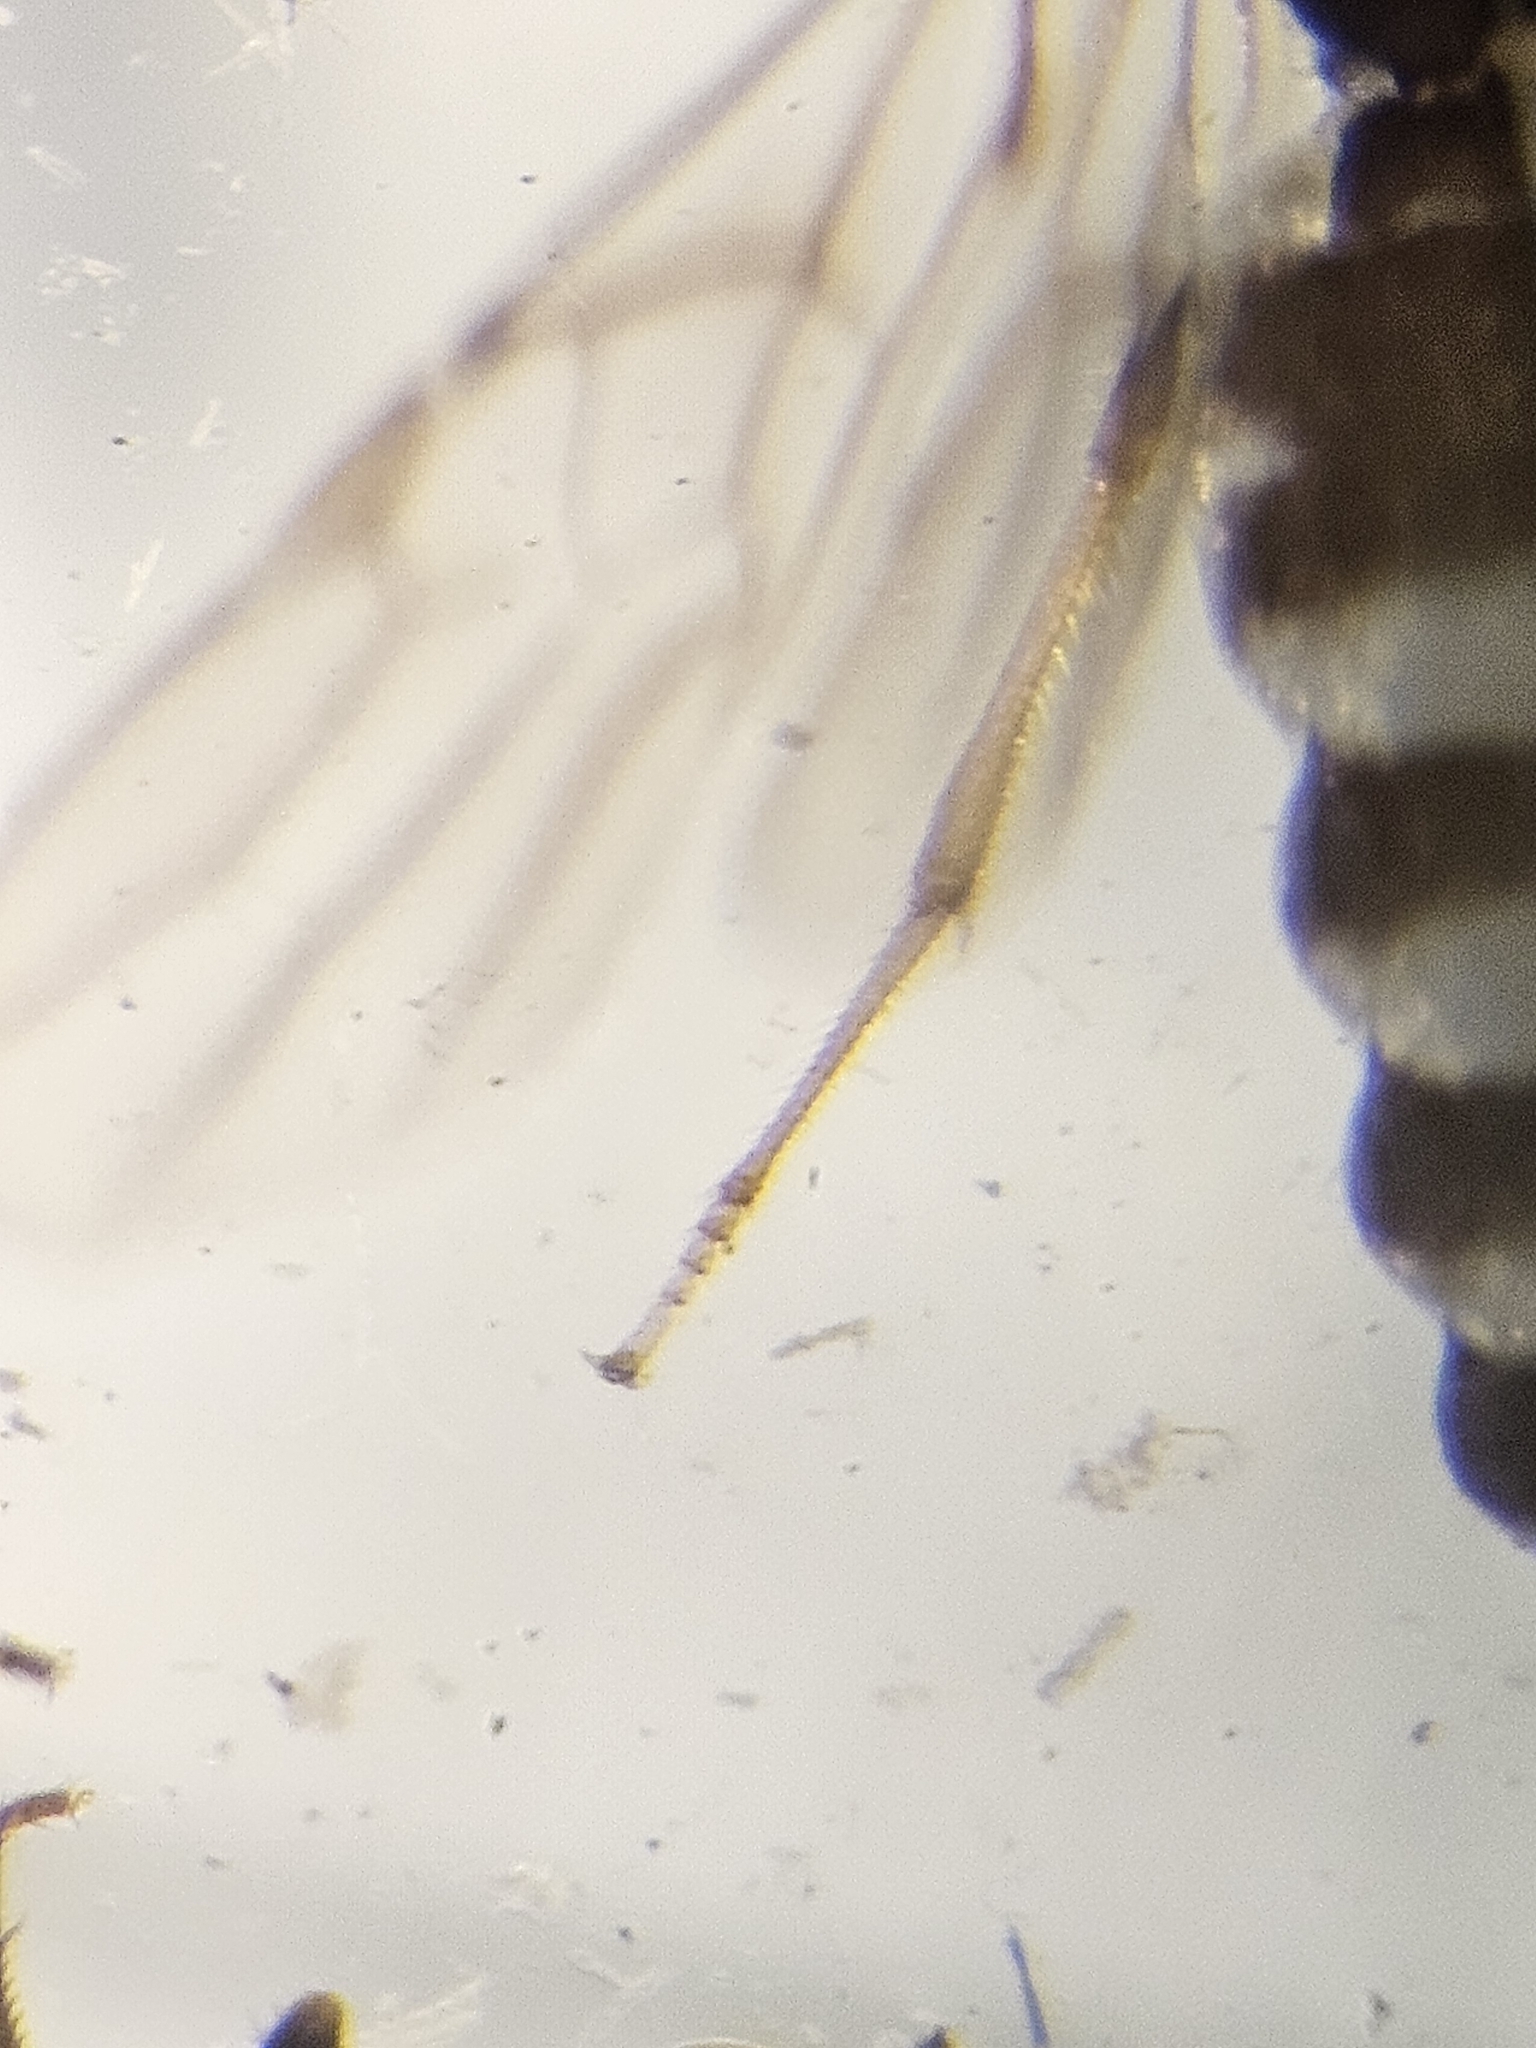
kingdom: Animalia
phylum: Arthropoda
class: Insecta
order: Hymenoptera
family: Braconidae
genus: Histeromerus
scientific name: Histeromerus canadensis
